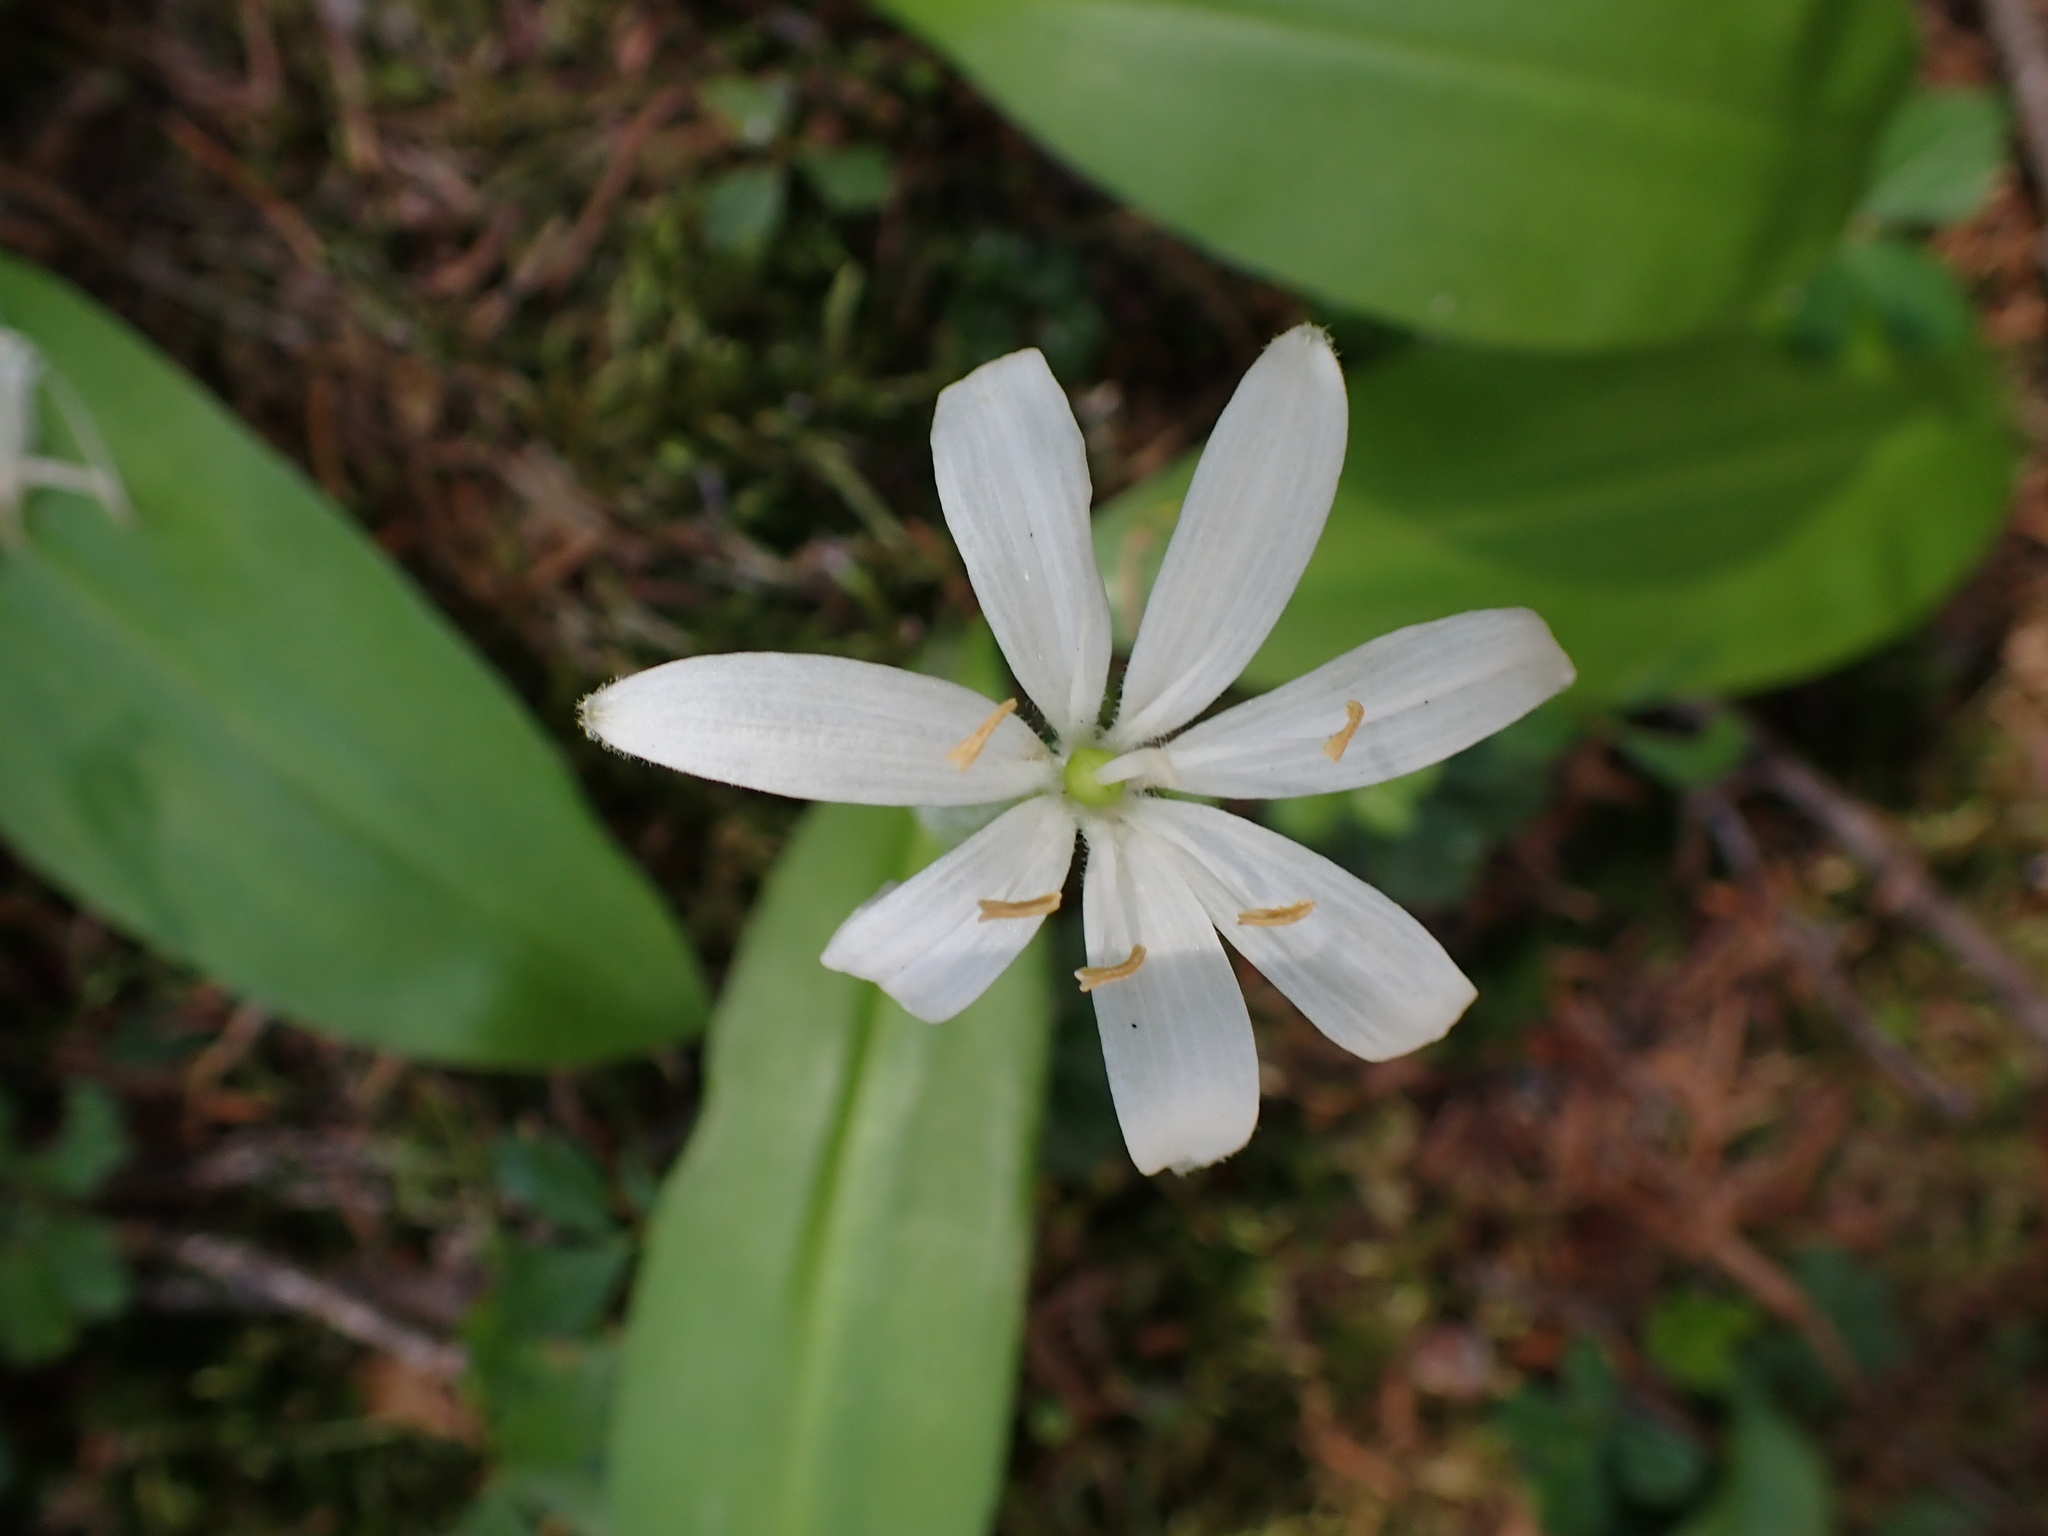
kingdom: Plantae
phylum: Tracheophyta
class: Liliopsida
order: Liliales
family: Liliaceae
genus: Clintonia
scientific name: Clintonia uniflora
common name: Queen's cup
